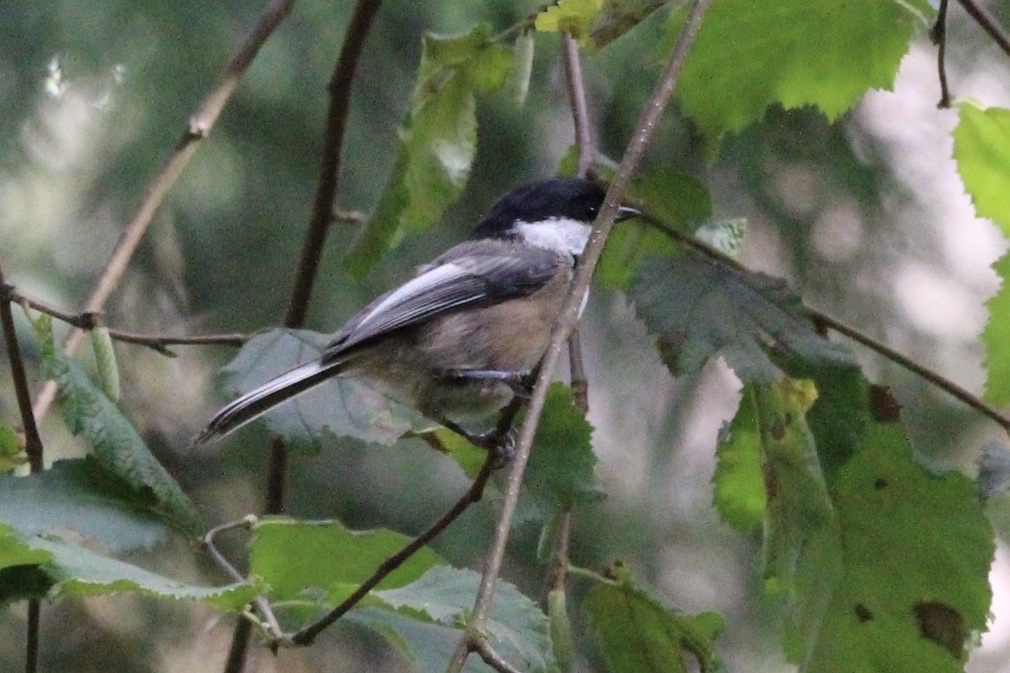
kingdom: Animalia
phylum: Chordata
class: Aves
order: Passeriformes
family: Paridae
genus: Poecile
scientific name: Poecile atricapillus
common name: Black-capped chickadee
